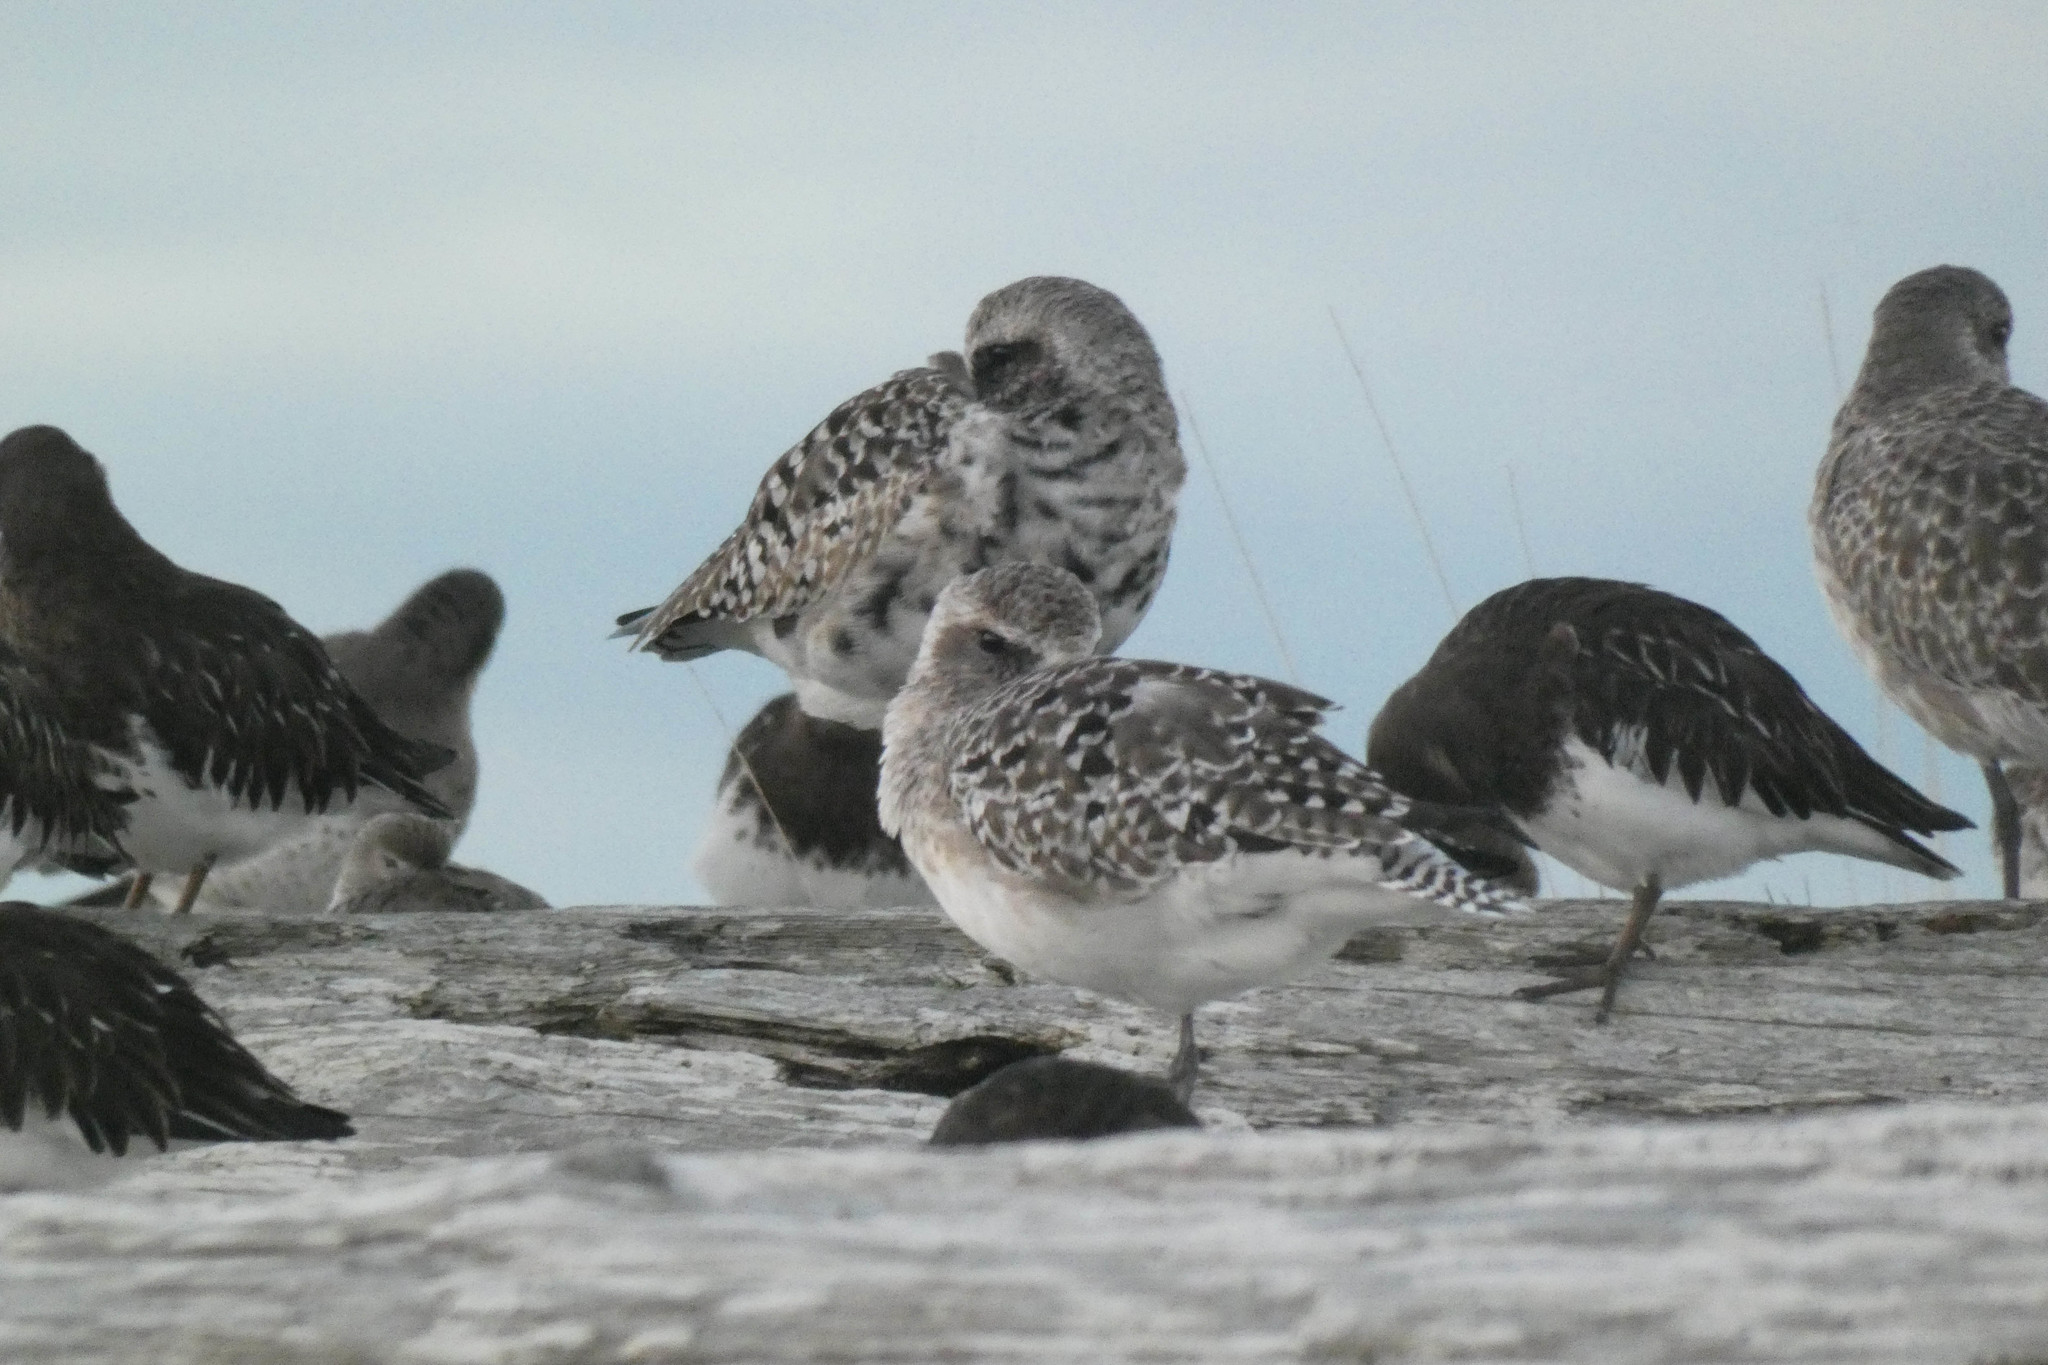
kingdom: Animalia
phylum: Chordata
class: Aves
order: Charadriiformes
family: Scolopacidae
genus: Arenaria
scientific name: Arenaria melanocephala
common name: Black turnstone
